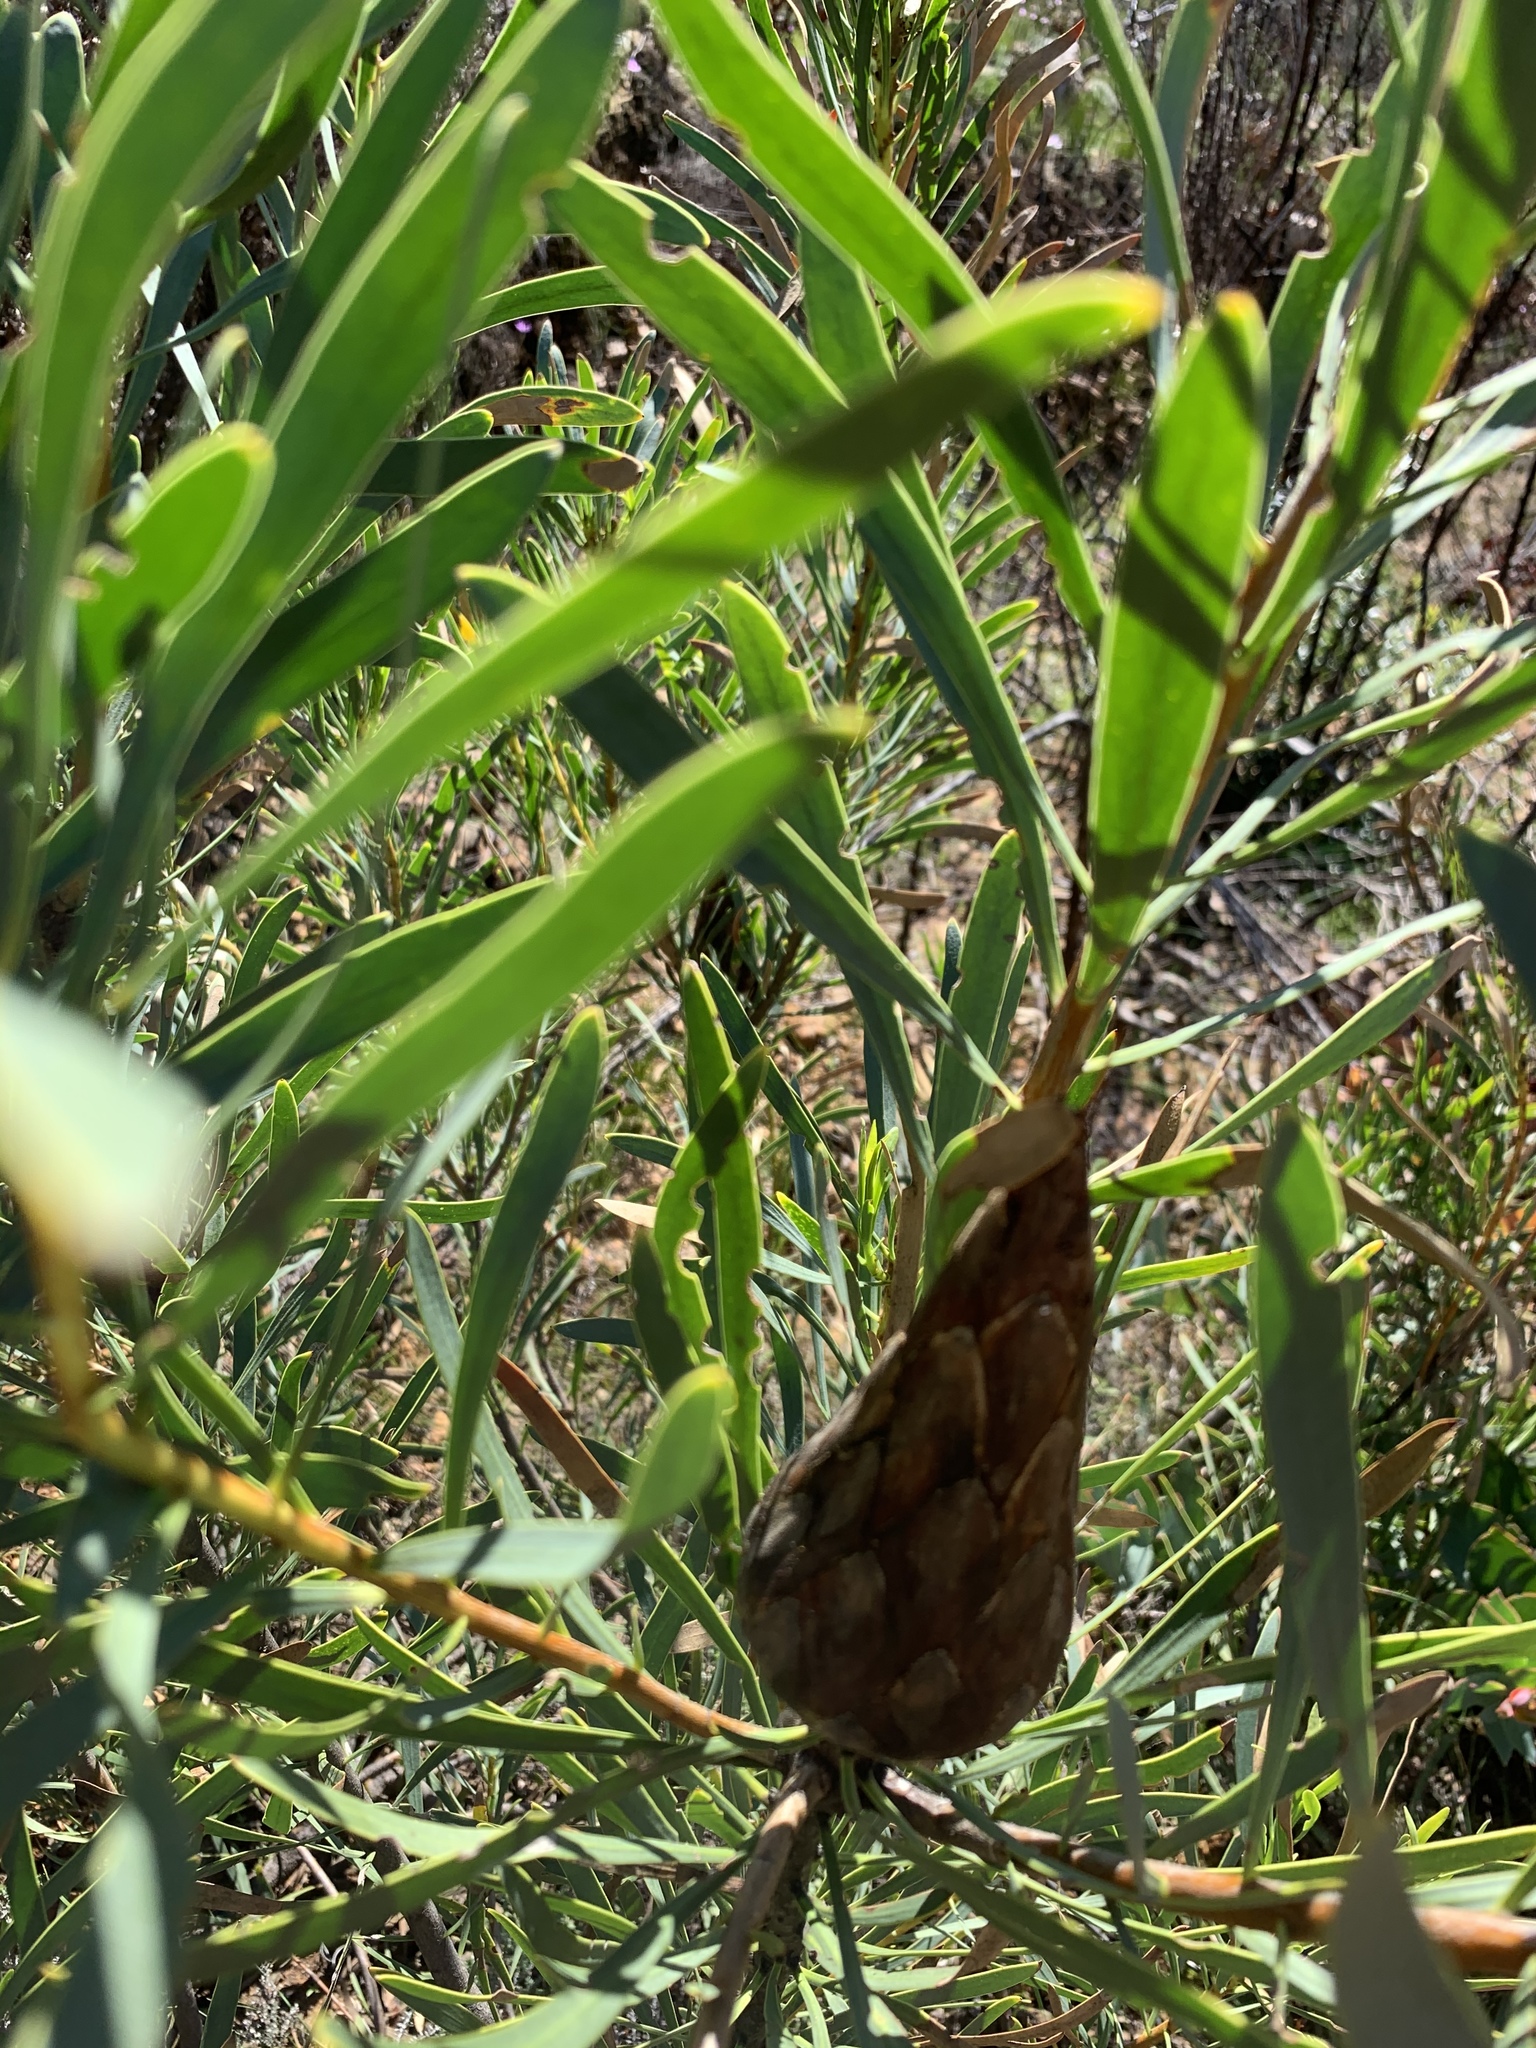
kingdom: Plantae
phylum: Tracheophyta
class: Magnoliopsida
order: Proteales
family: Proteaceae
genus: Protea
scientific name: Protea repens
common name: Sugarbush
